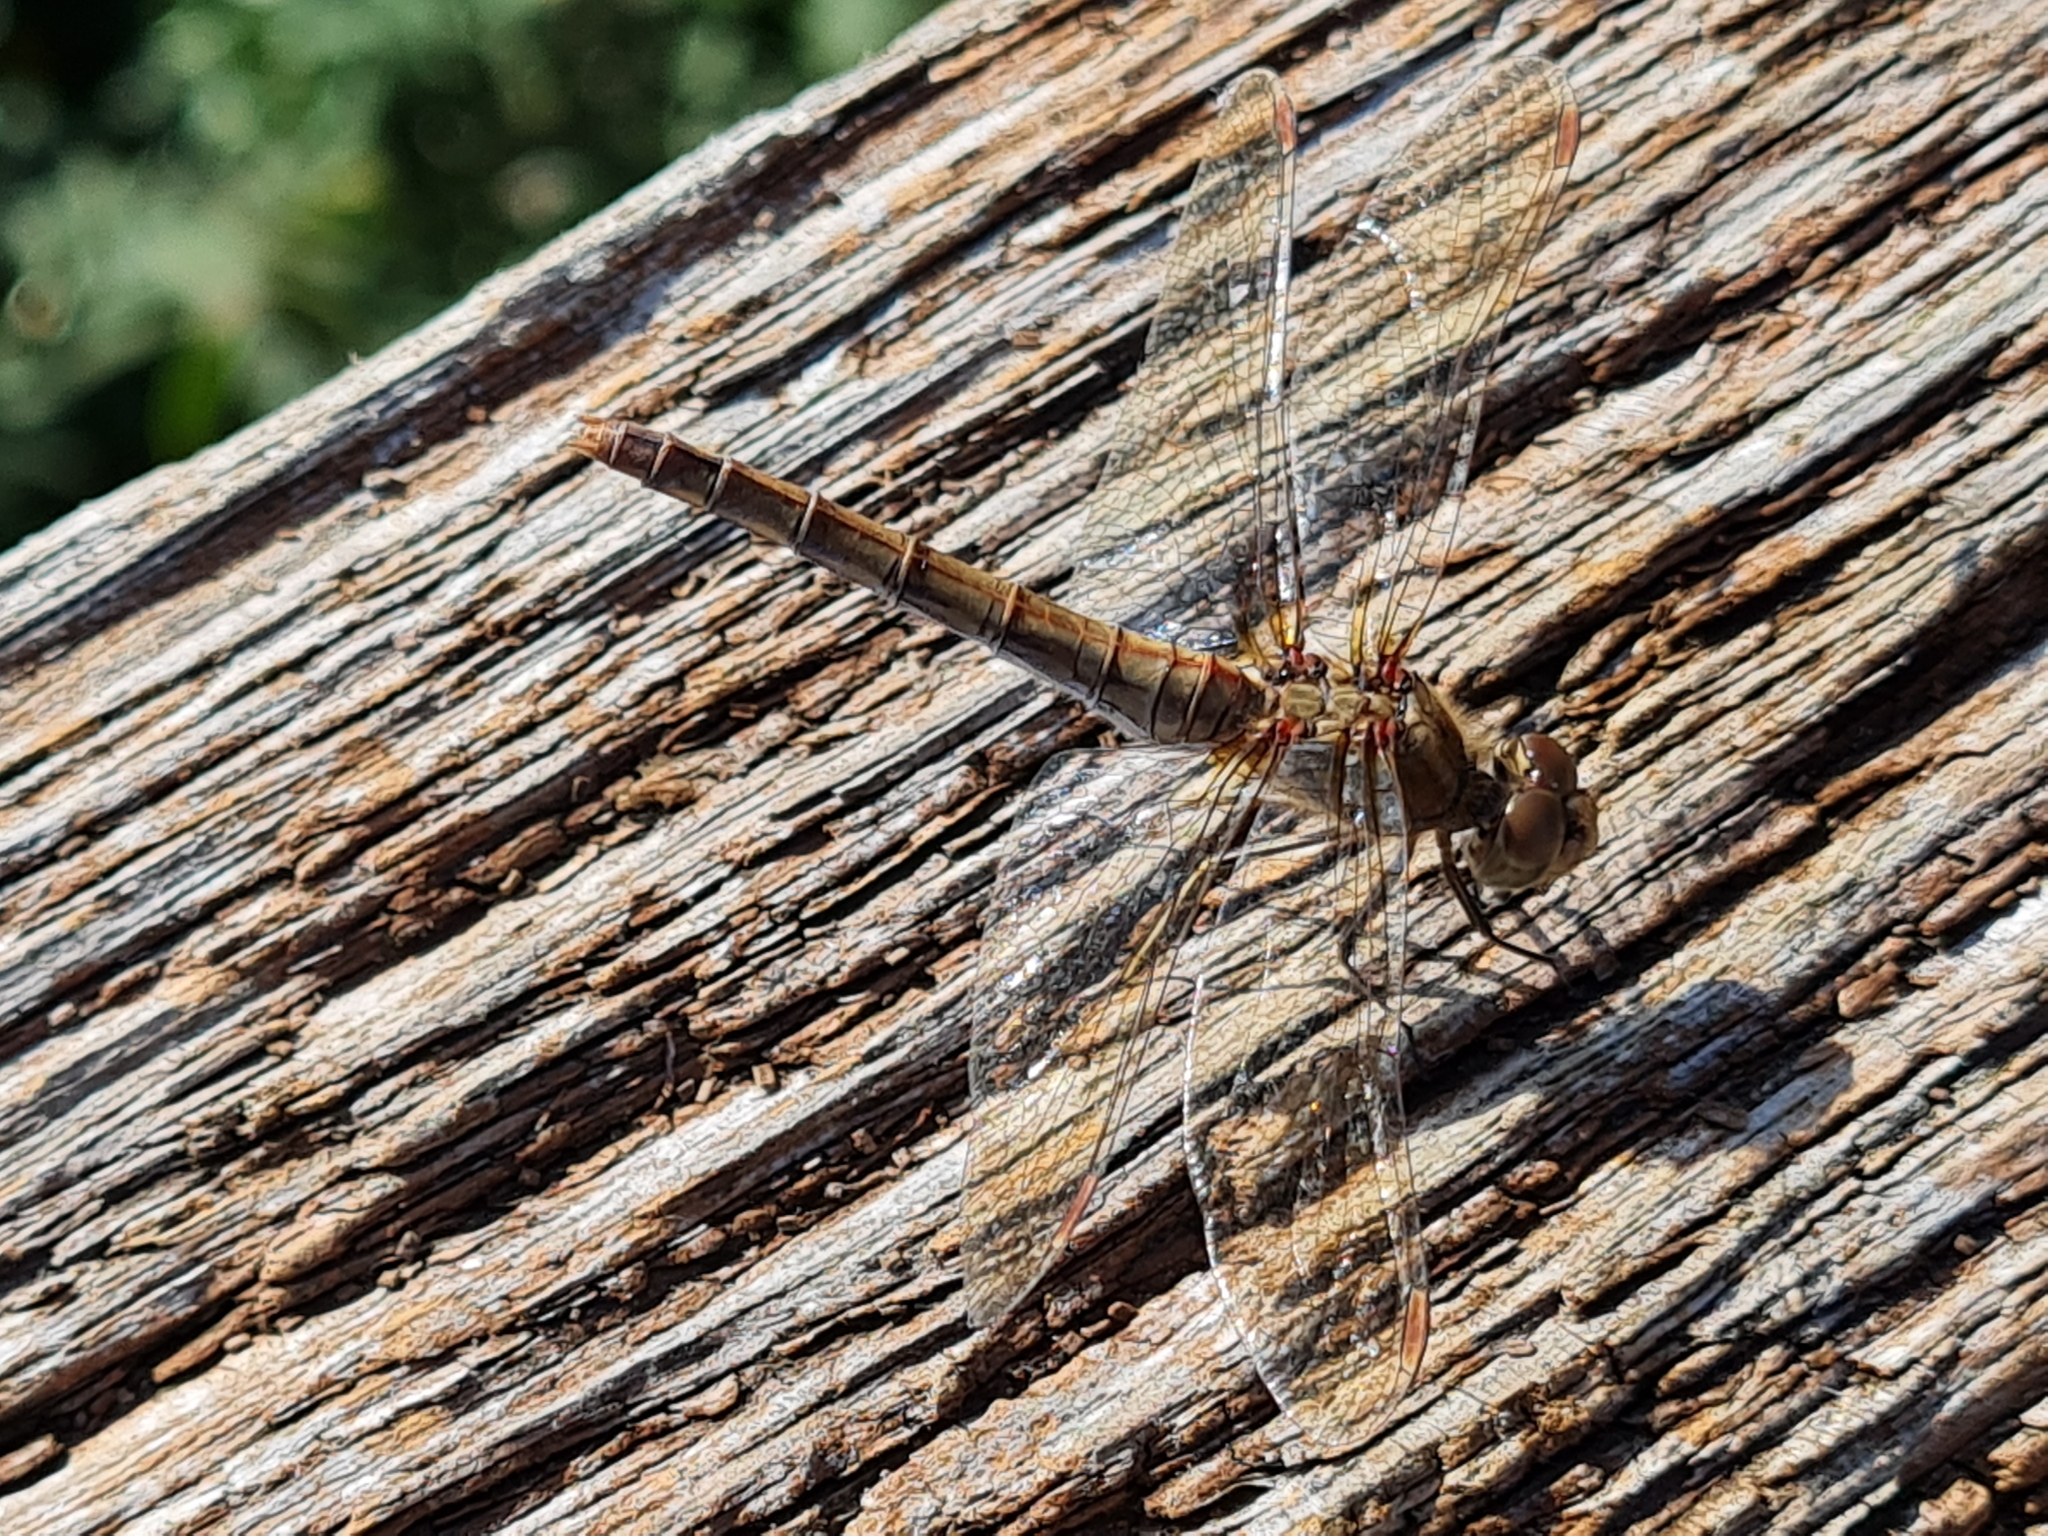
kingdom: Animalia
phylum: Arthropoda
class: Insecta
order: Odonata
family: Libellulidae
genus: Sympetrum
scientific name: Sympetrum striolatum
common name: Common darter
